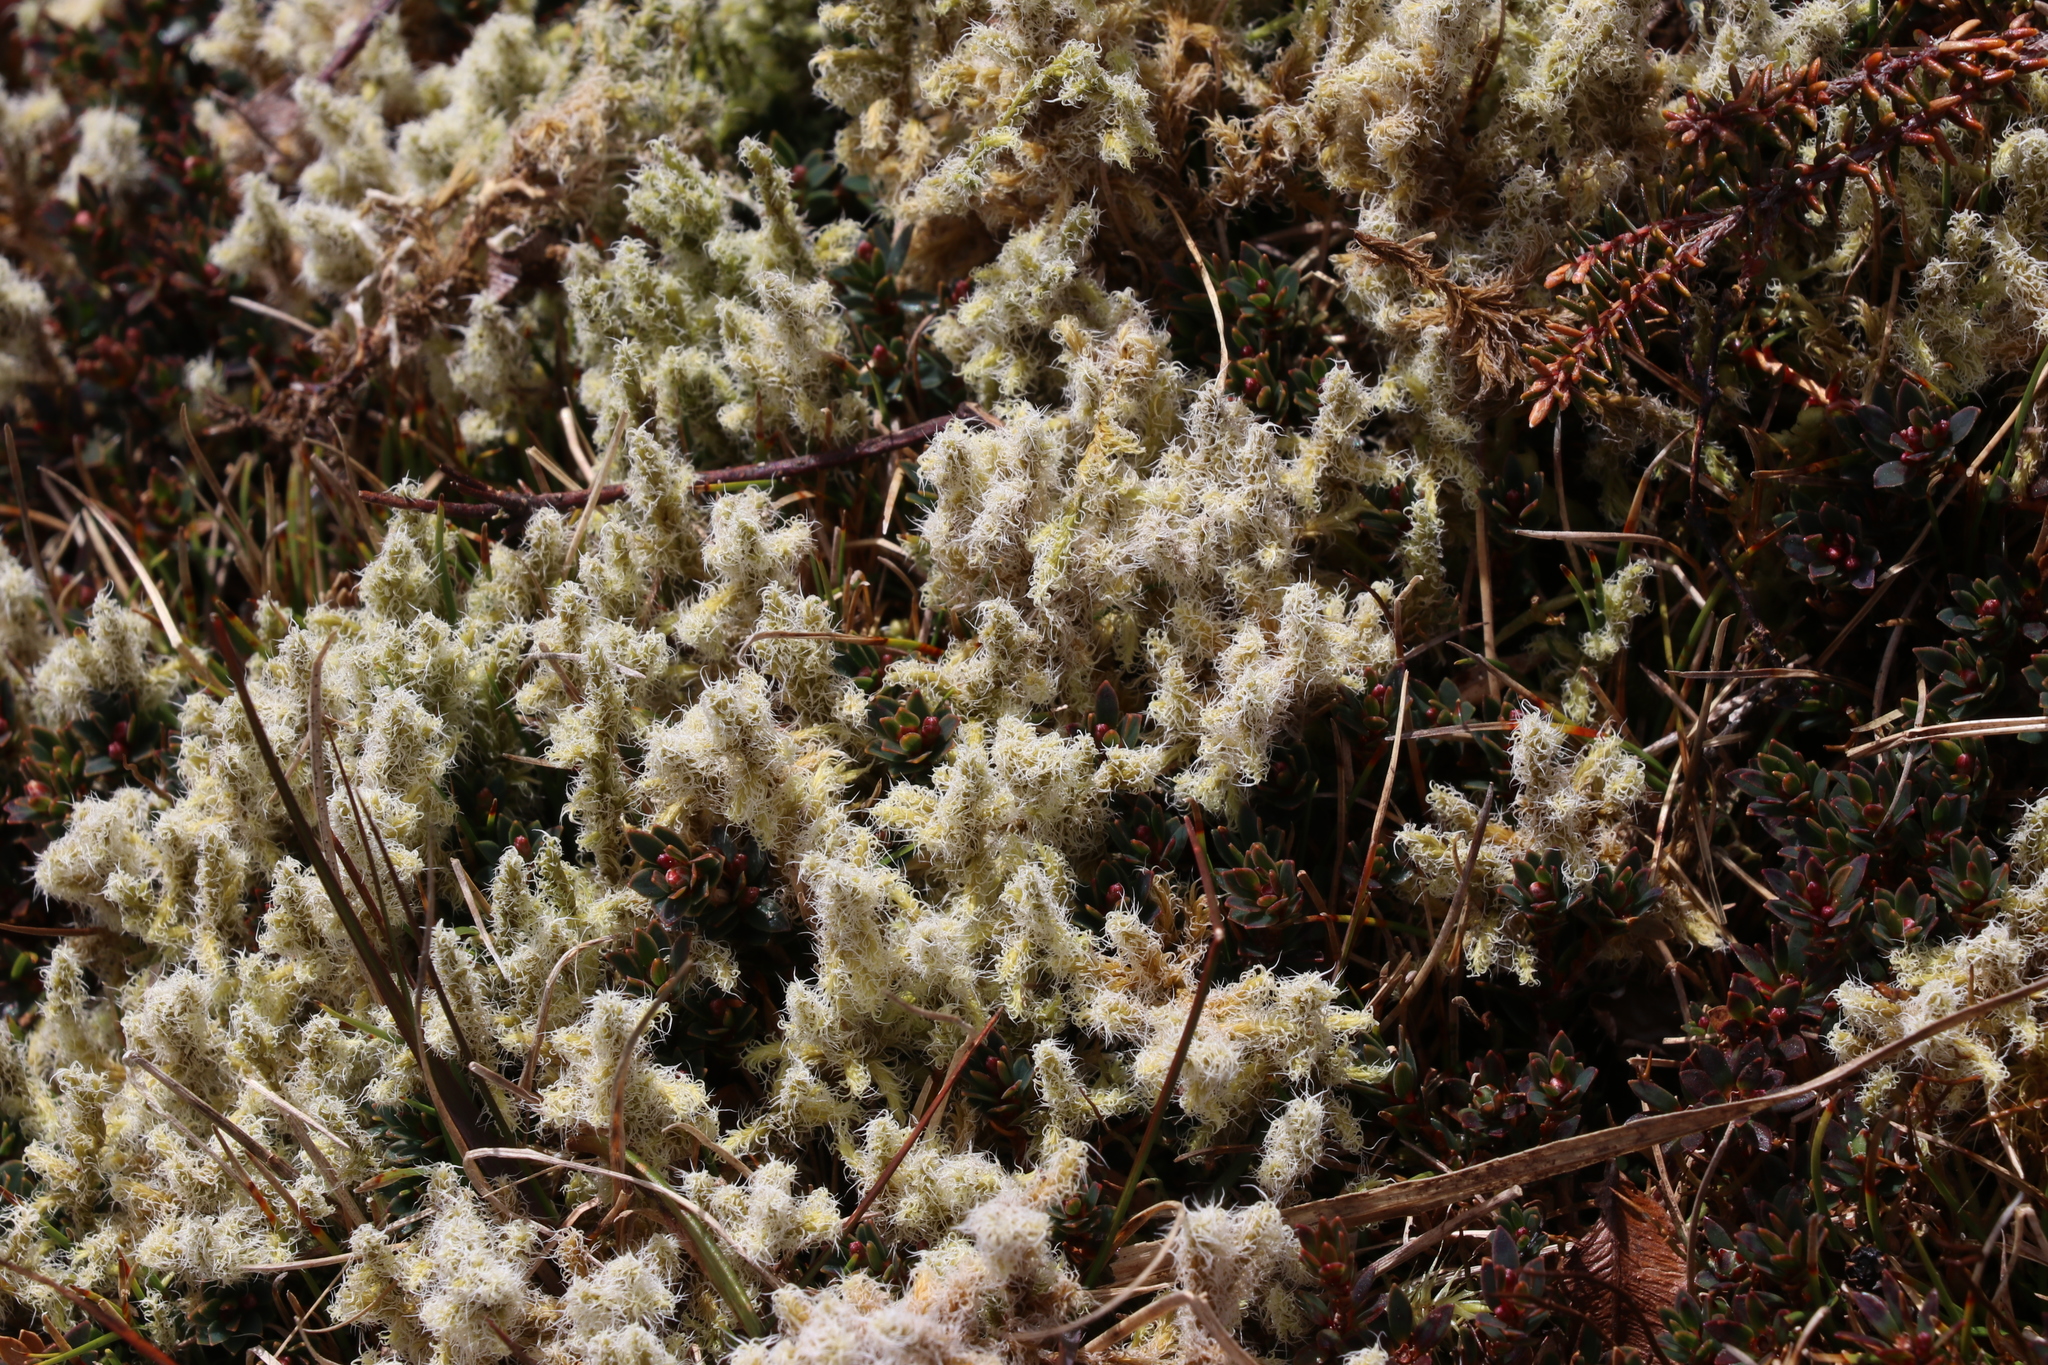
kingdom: Plantae
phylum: Bryophyta
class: Bryopsida
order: Grimmiales
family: Grimmiaceae
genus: Racomitrium
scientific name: Racomitrium lanuginosum
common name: Hoary rock moss
